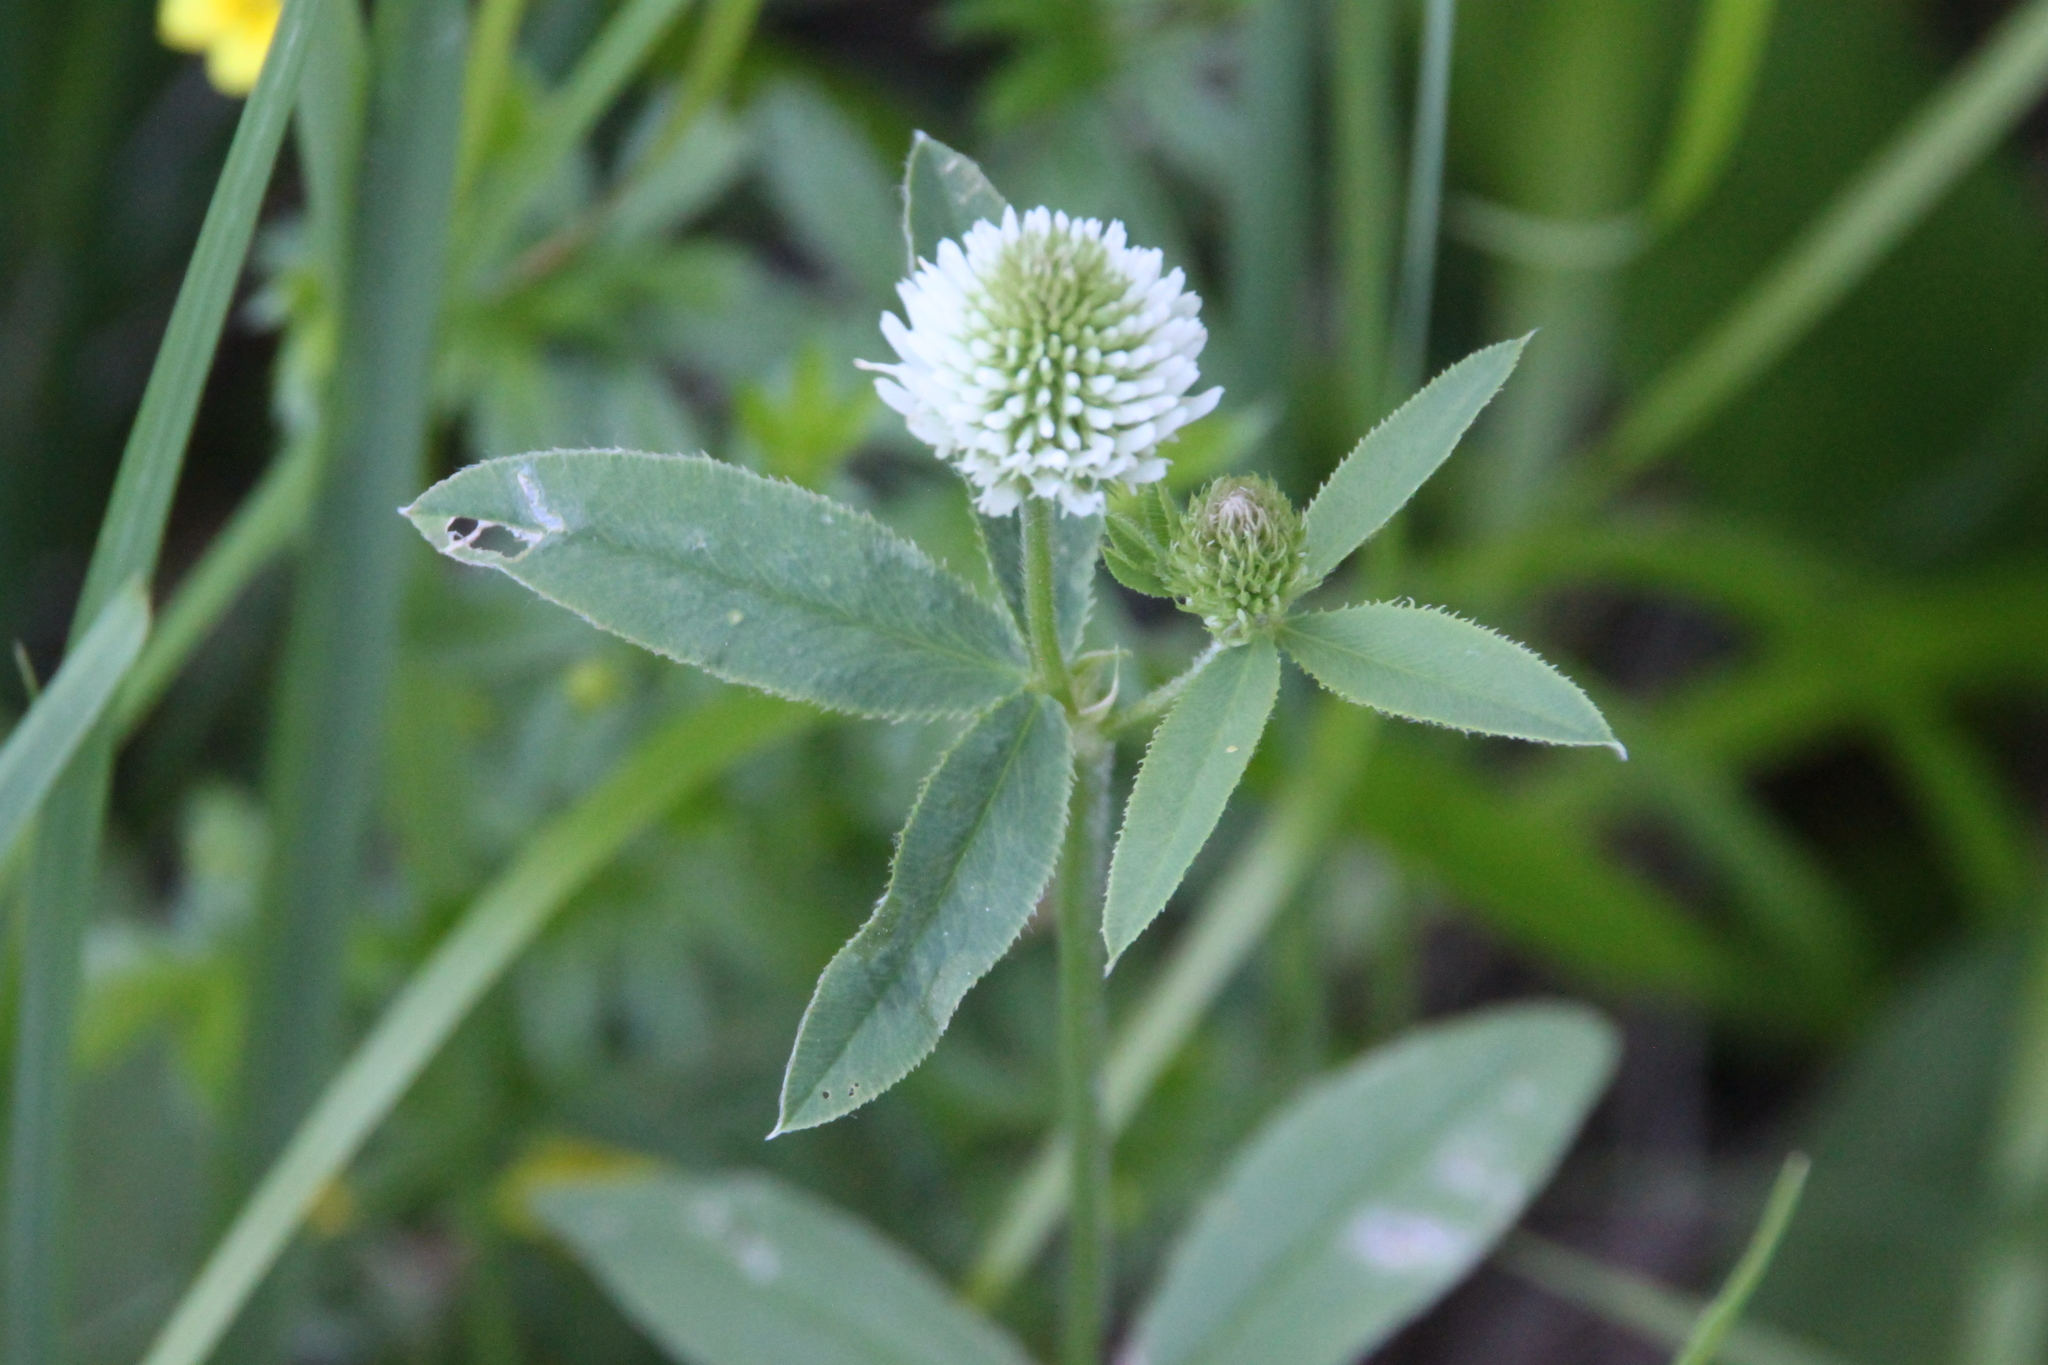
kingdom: Plantae
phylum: Tracheophyta
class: Magnoliopsida
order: Fabales
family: Fabaceae
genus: Trifolium
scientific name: Trifolium montanum
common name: Mountain clover
